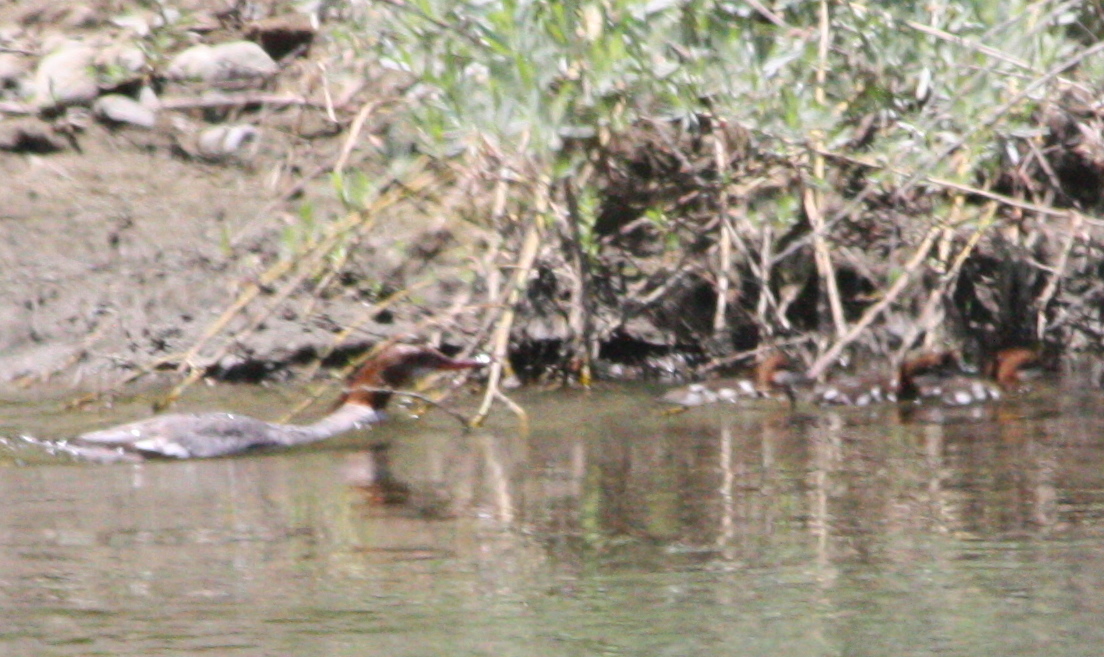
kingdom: Animalia
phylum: Chordata
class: Aves
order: Anseriformes
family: Anatidae
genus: Mergus
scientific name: Mergus merganser
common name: Common merganser
